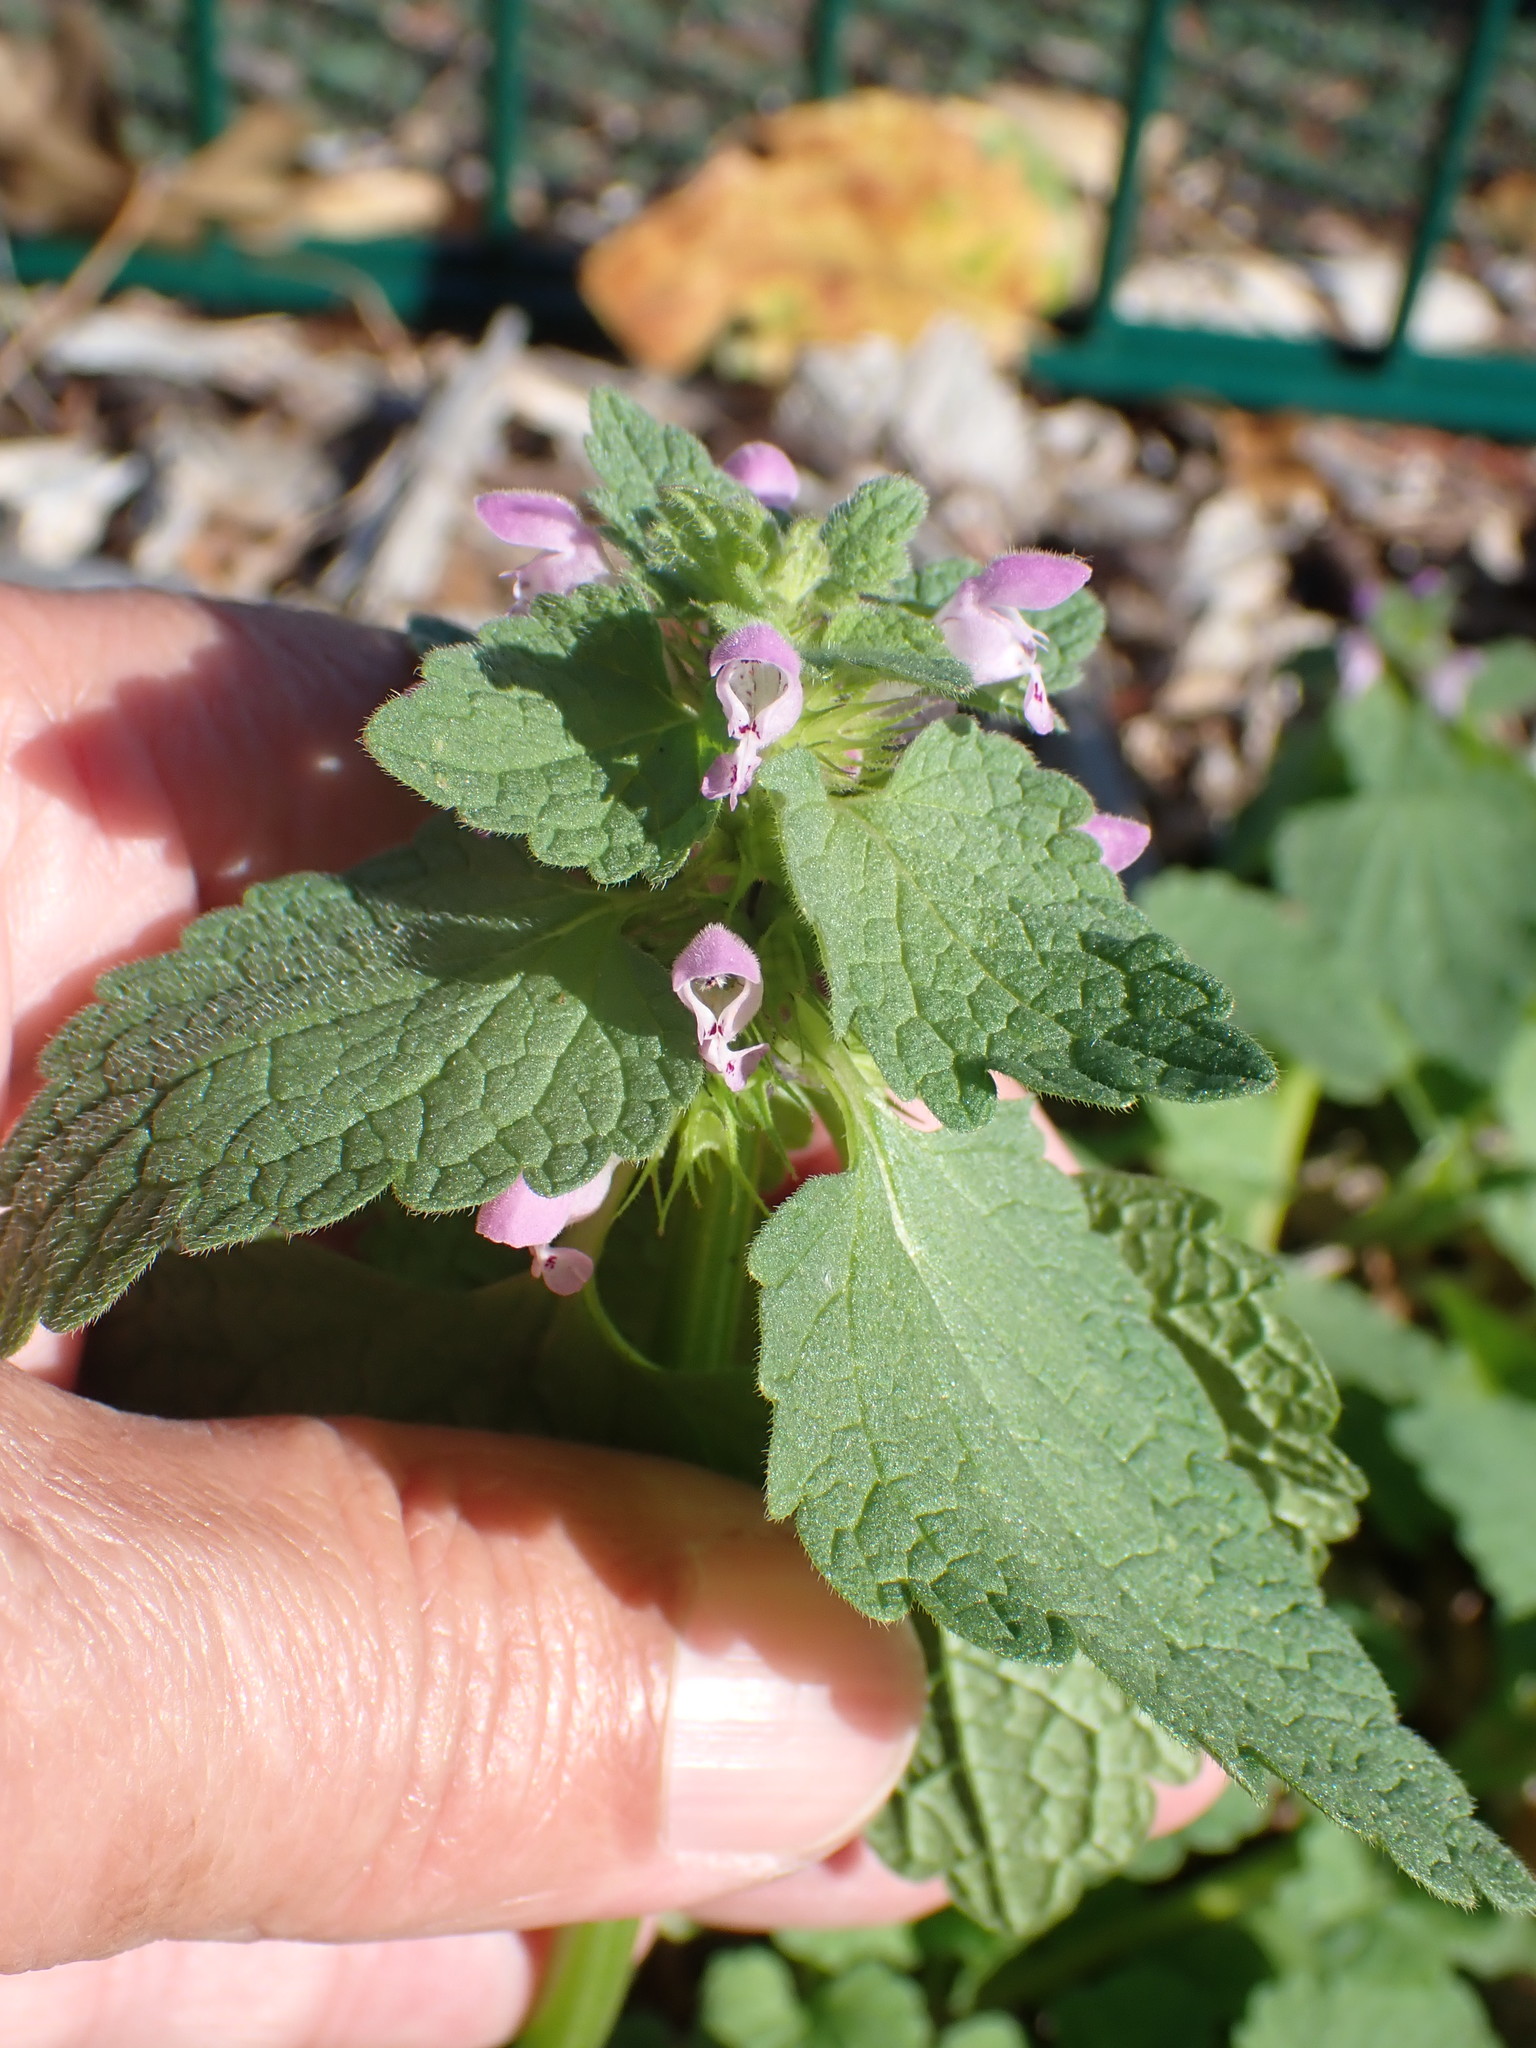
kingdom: Plantae
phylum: Tracheophyta
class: Magnoliopsida
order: Lamiales
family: Lamiaceae
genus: Lamium
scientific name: Lamium purpureum
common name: Red dead-nettle
